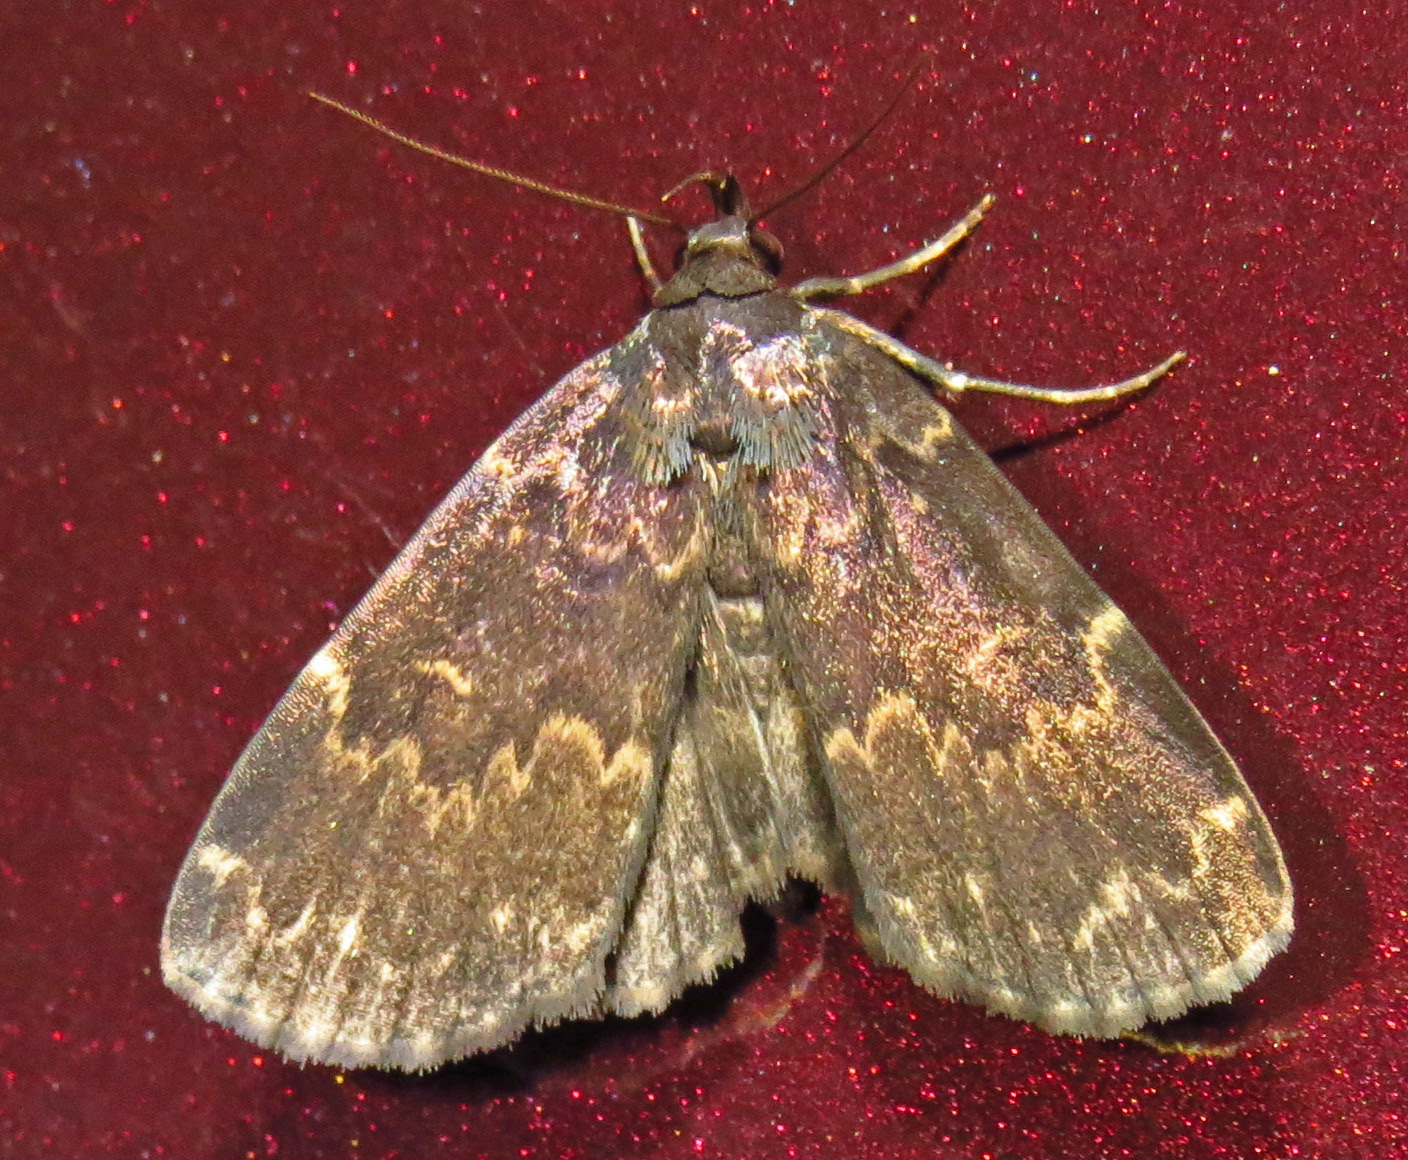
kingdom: Animalia
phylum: Arthropoda
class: Insecta
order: Lepidoptera
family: Erebidae
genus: Idia
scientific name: Idia lubricalis
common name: Twin-striped tabby
